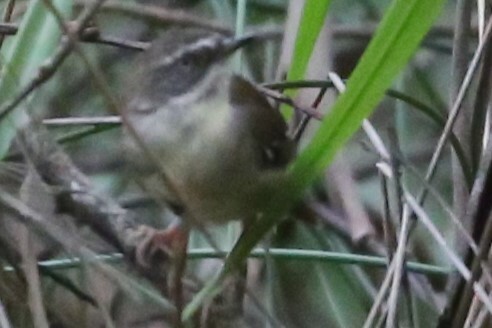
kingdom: Animalia
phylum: Chordata
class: Aves
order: Passeriformes
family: Acanthizidae
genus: Sericornis
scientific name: Sericornis frontalis
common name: White-browed scrubwren
